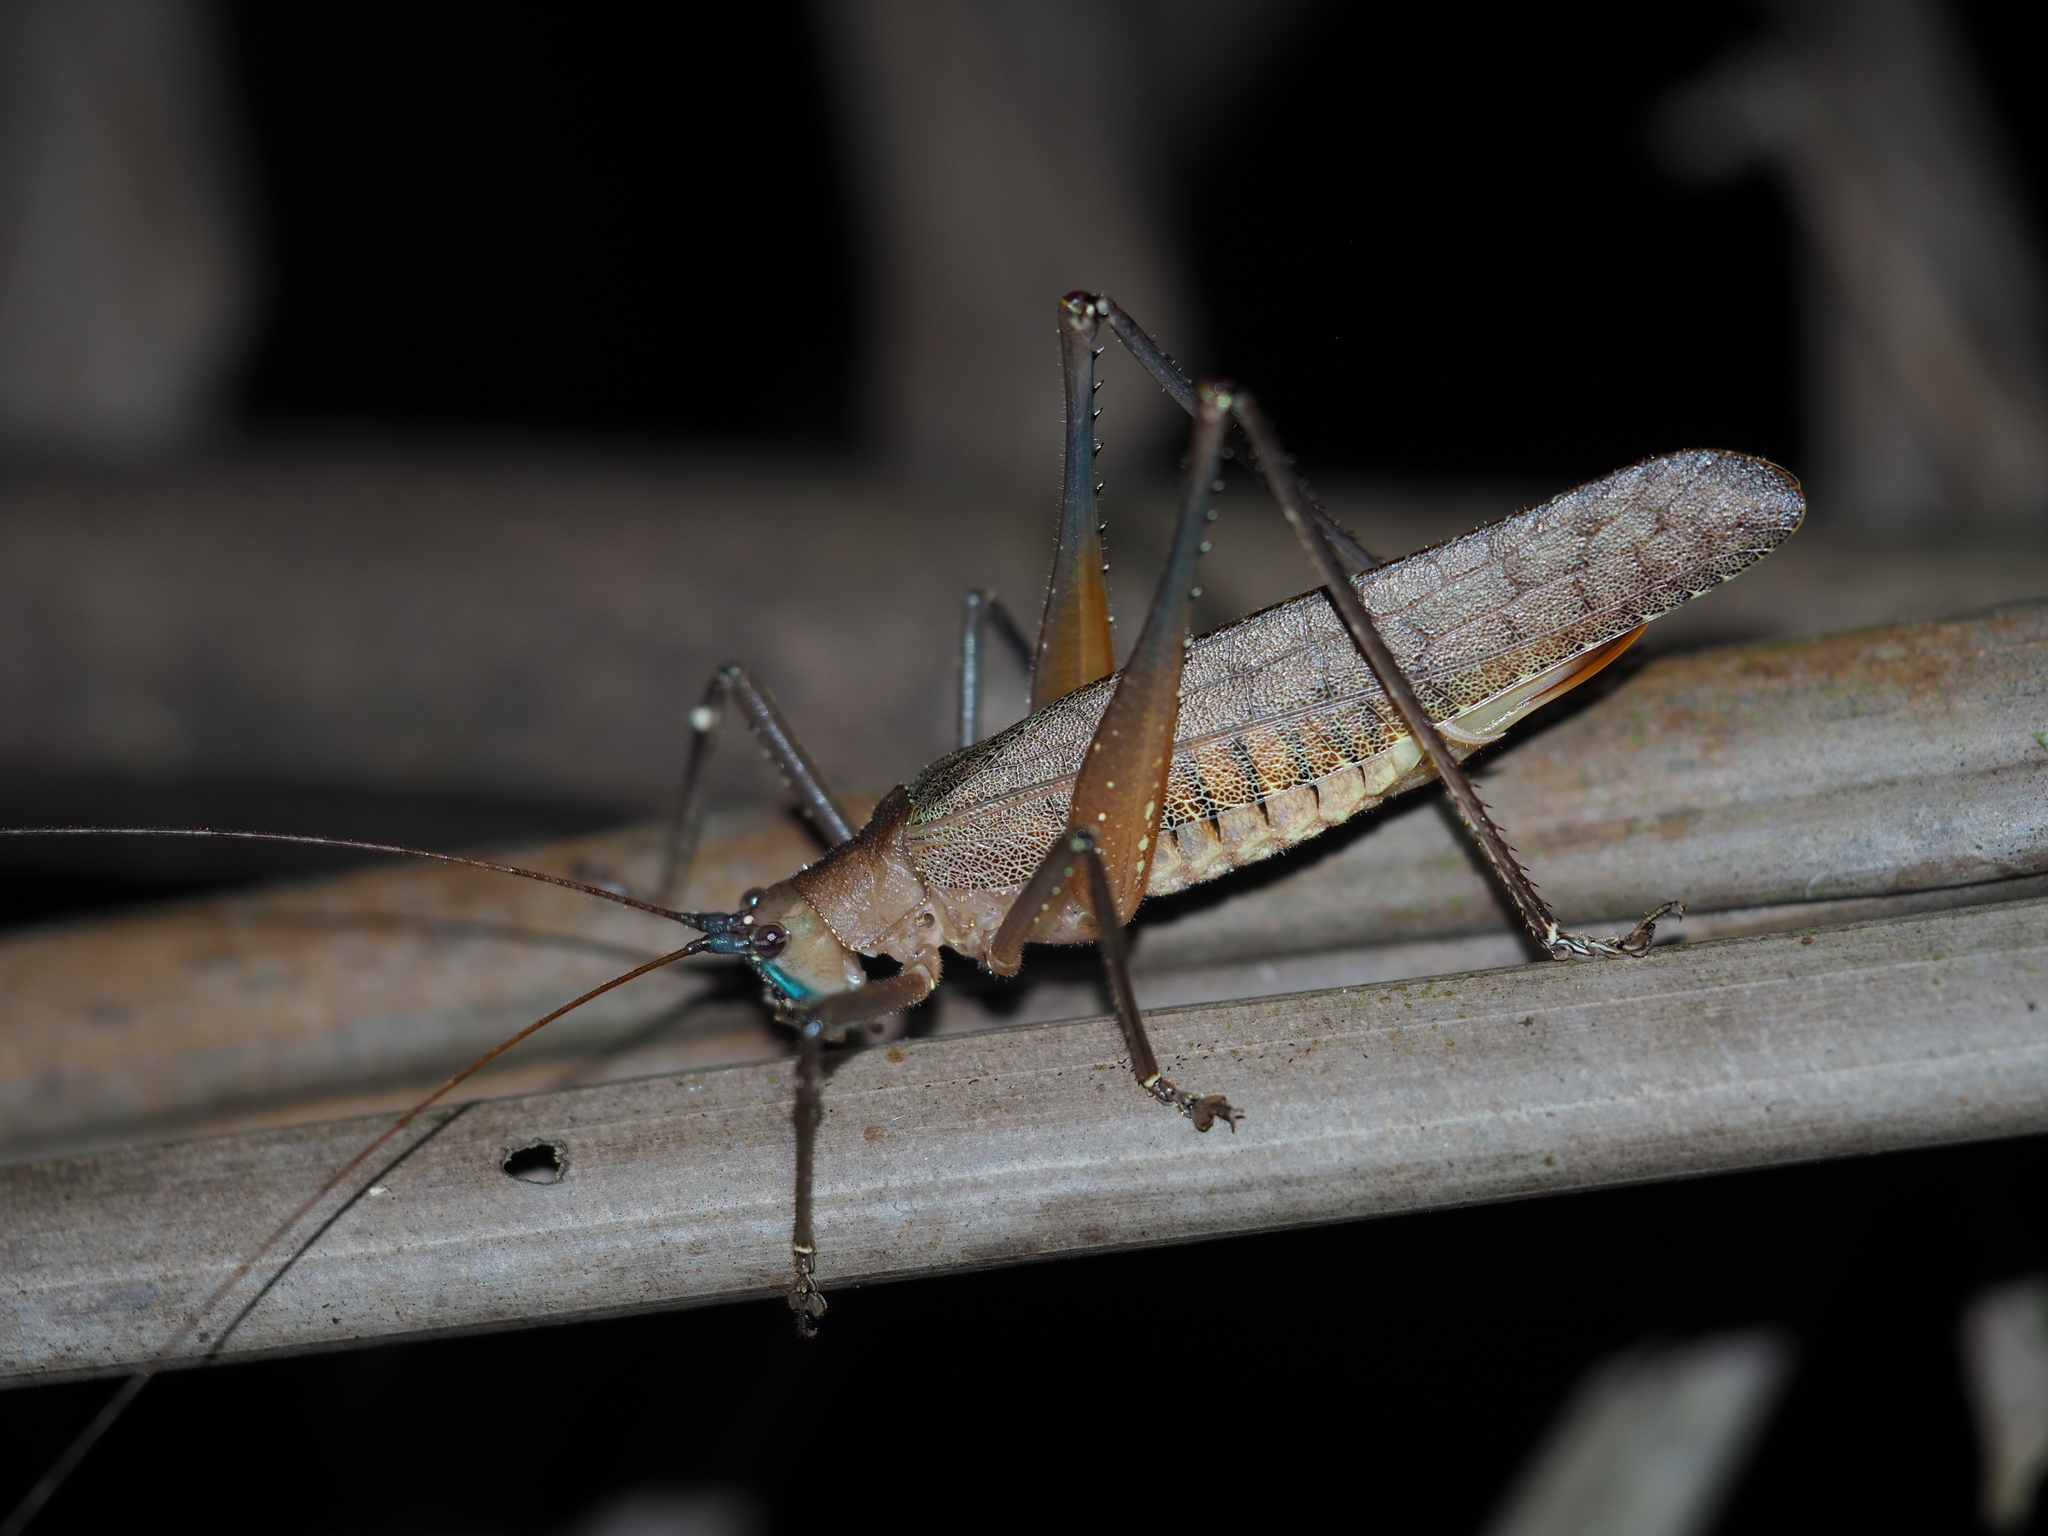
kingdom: Animalia
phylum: Arthropoda
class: Insecta
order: Orthoptera
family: Tettigoniidae
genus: Docidocercus
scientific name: Docidocercus gigliotosi
